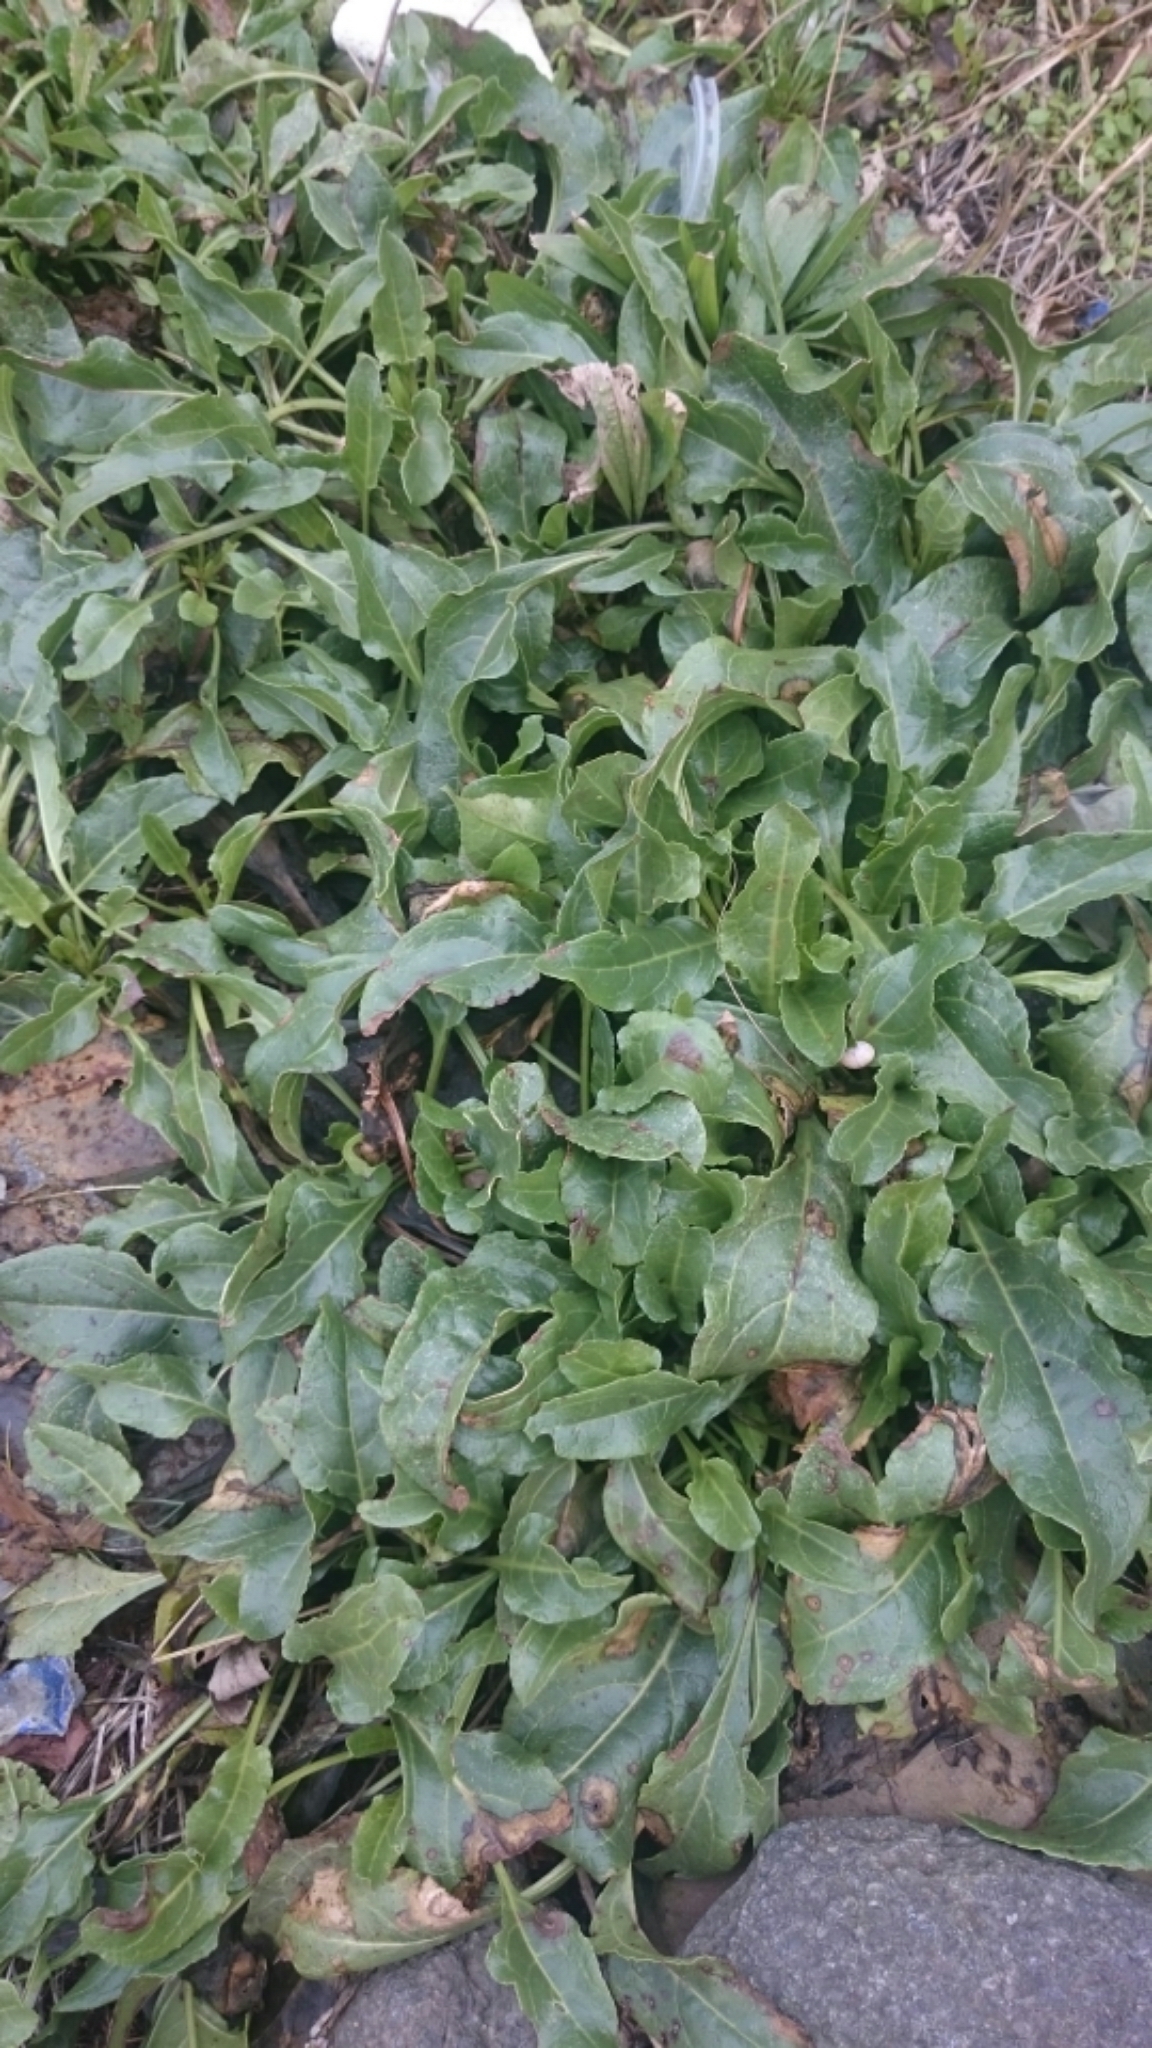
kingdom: Plantae
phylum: Tracheophyta
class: Magnoliopsida
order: Caryophyllales
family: Amaranthaceae
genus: Beta
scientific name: Beta vulgaris
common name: Beet
